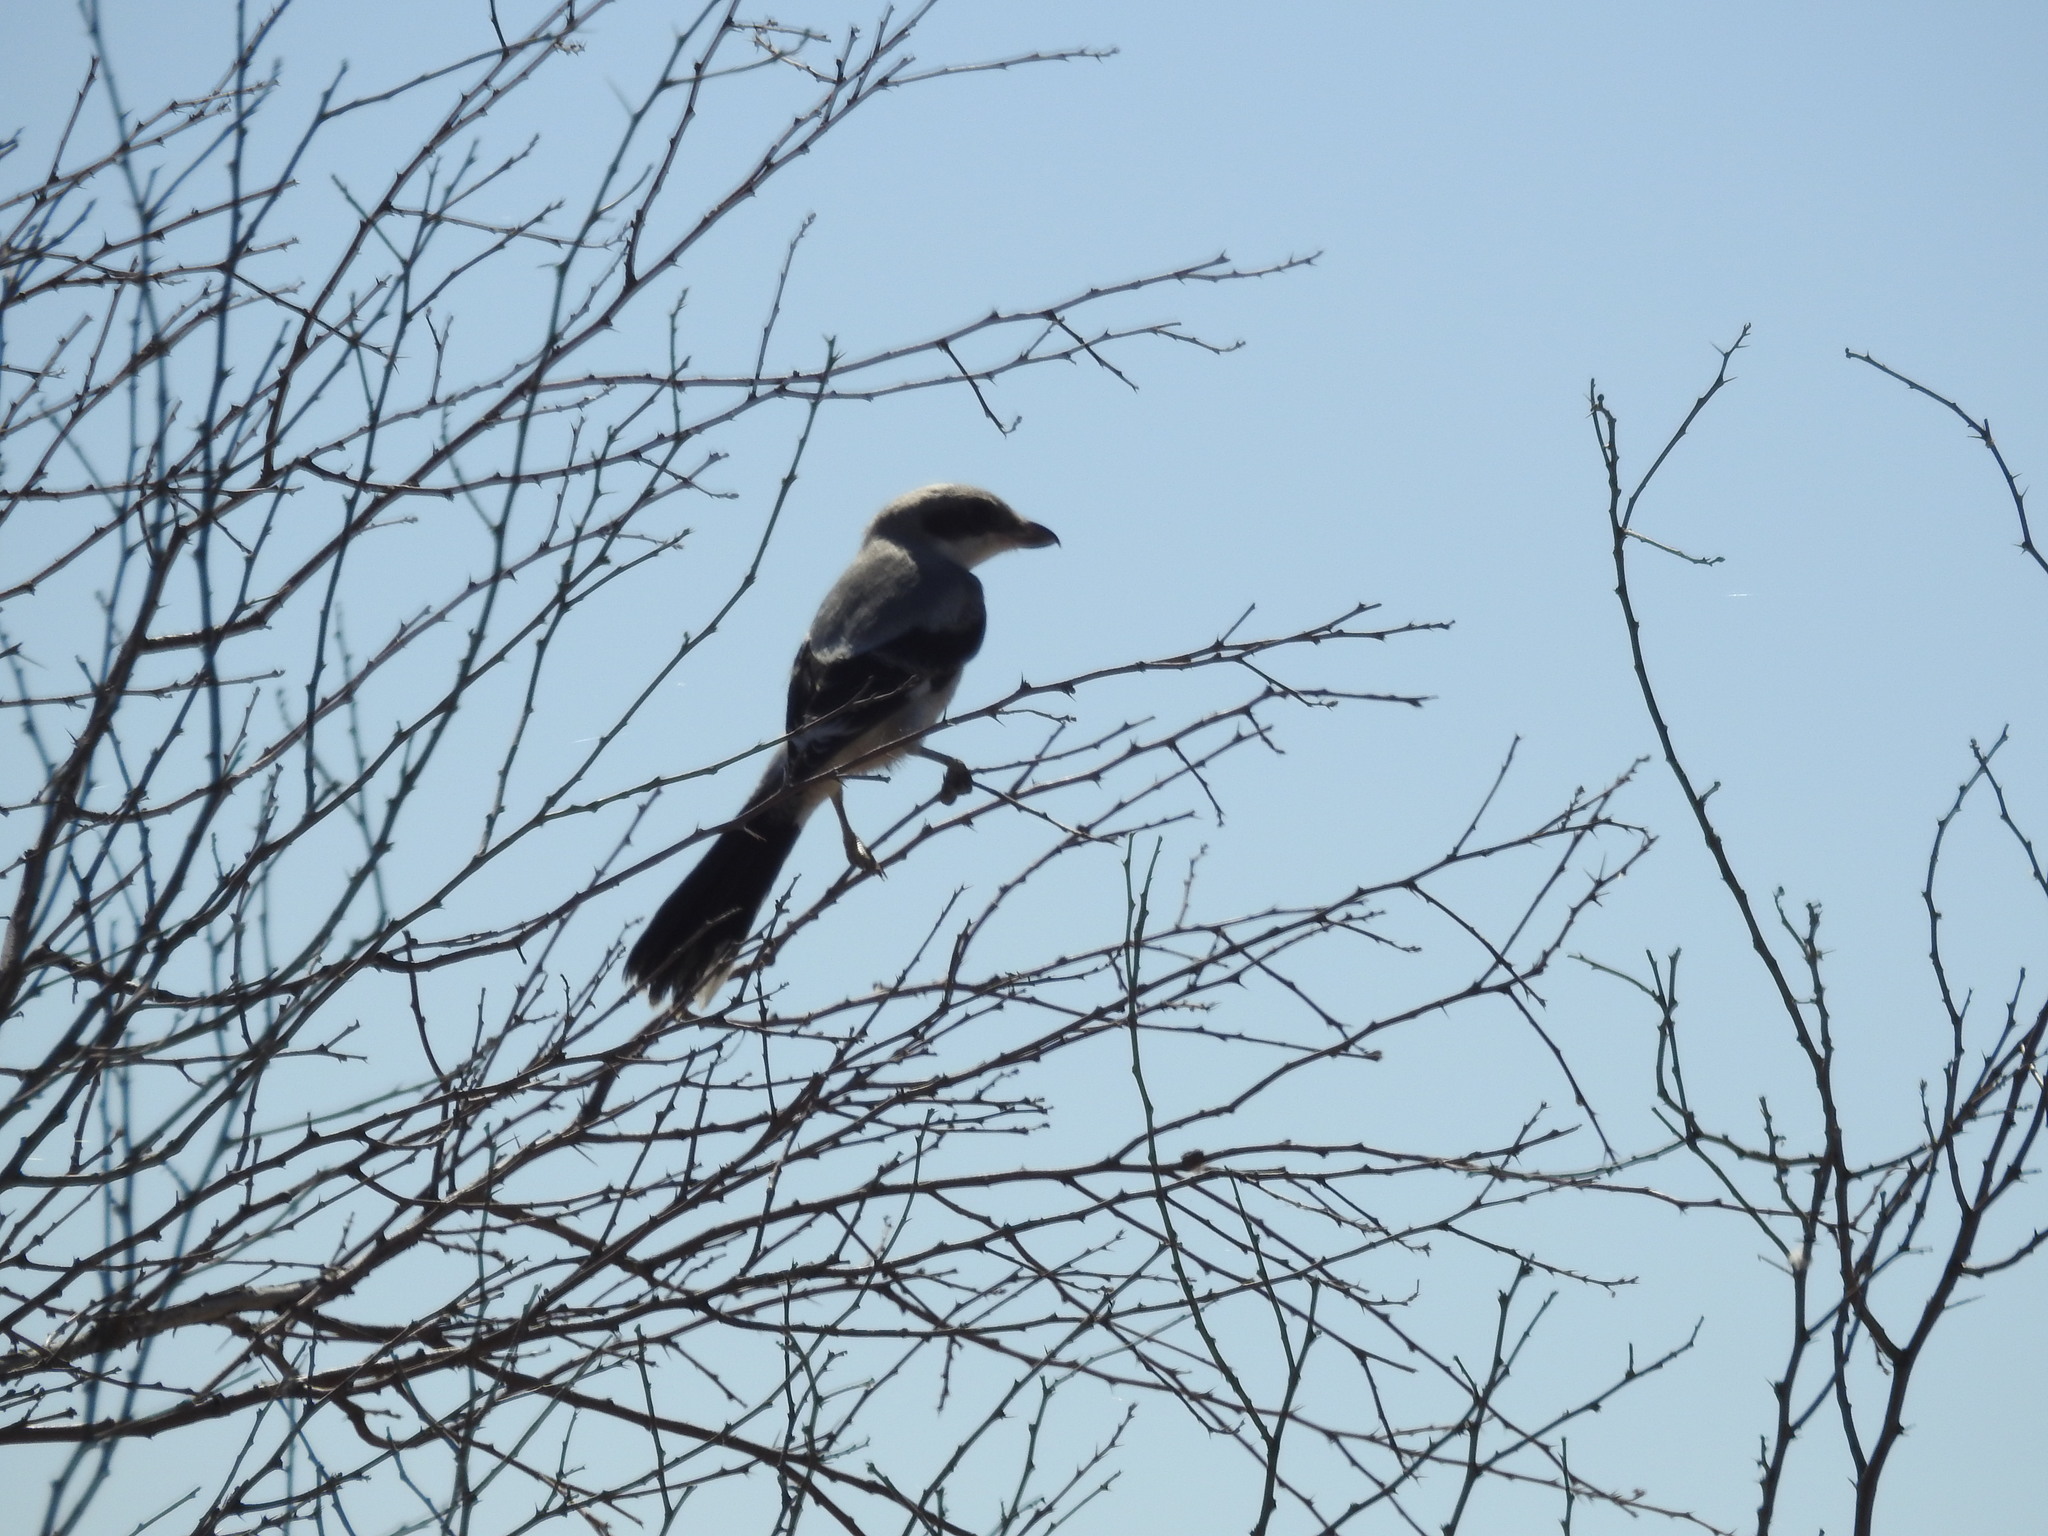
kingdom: Animalia
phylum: Chordata
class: Aves
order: Passeriformes
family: Laniidae
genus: Lanius
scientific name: Lanius ludovicianus
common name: Loggerhead shrike
